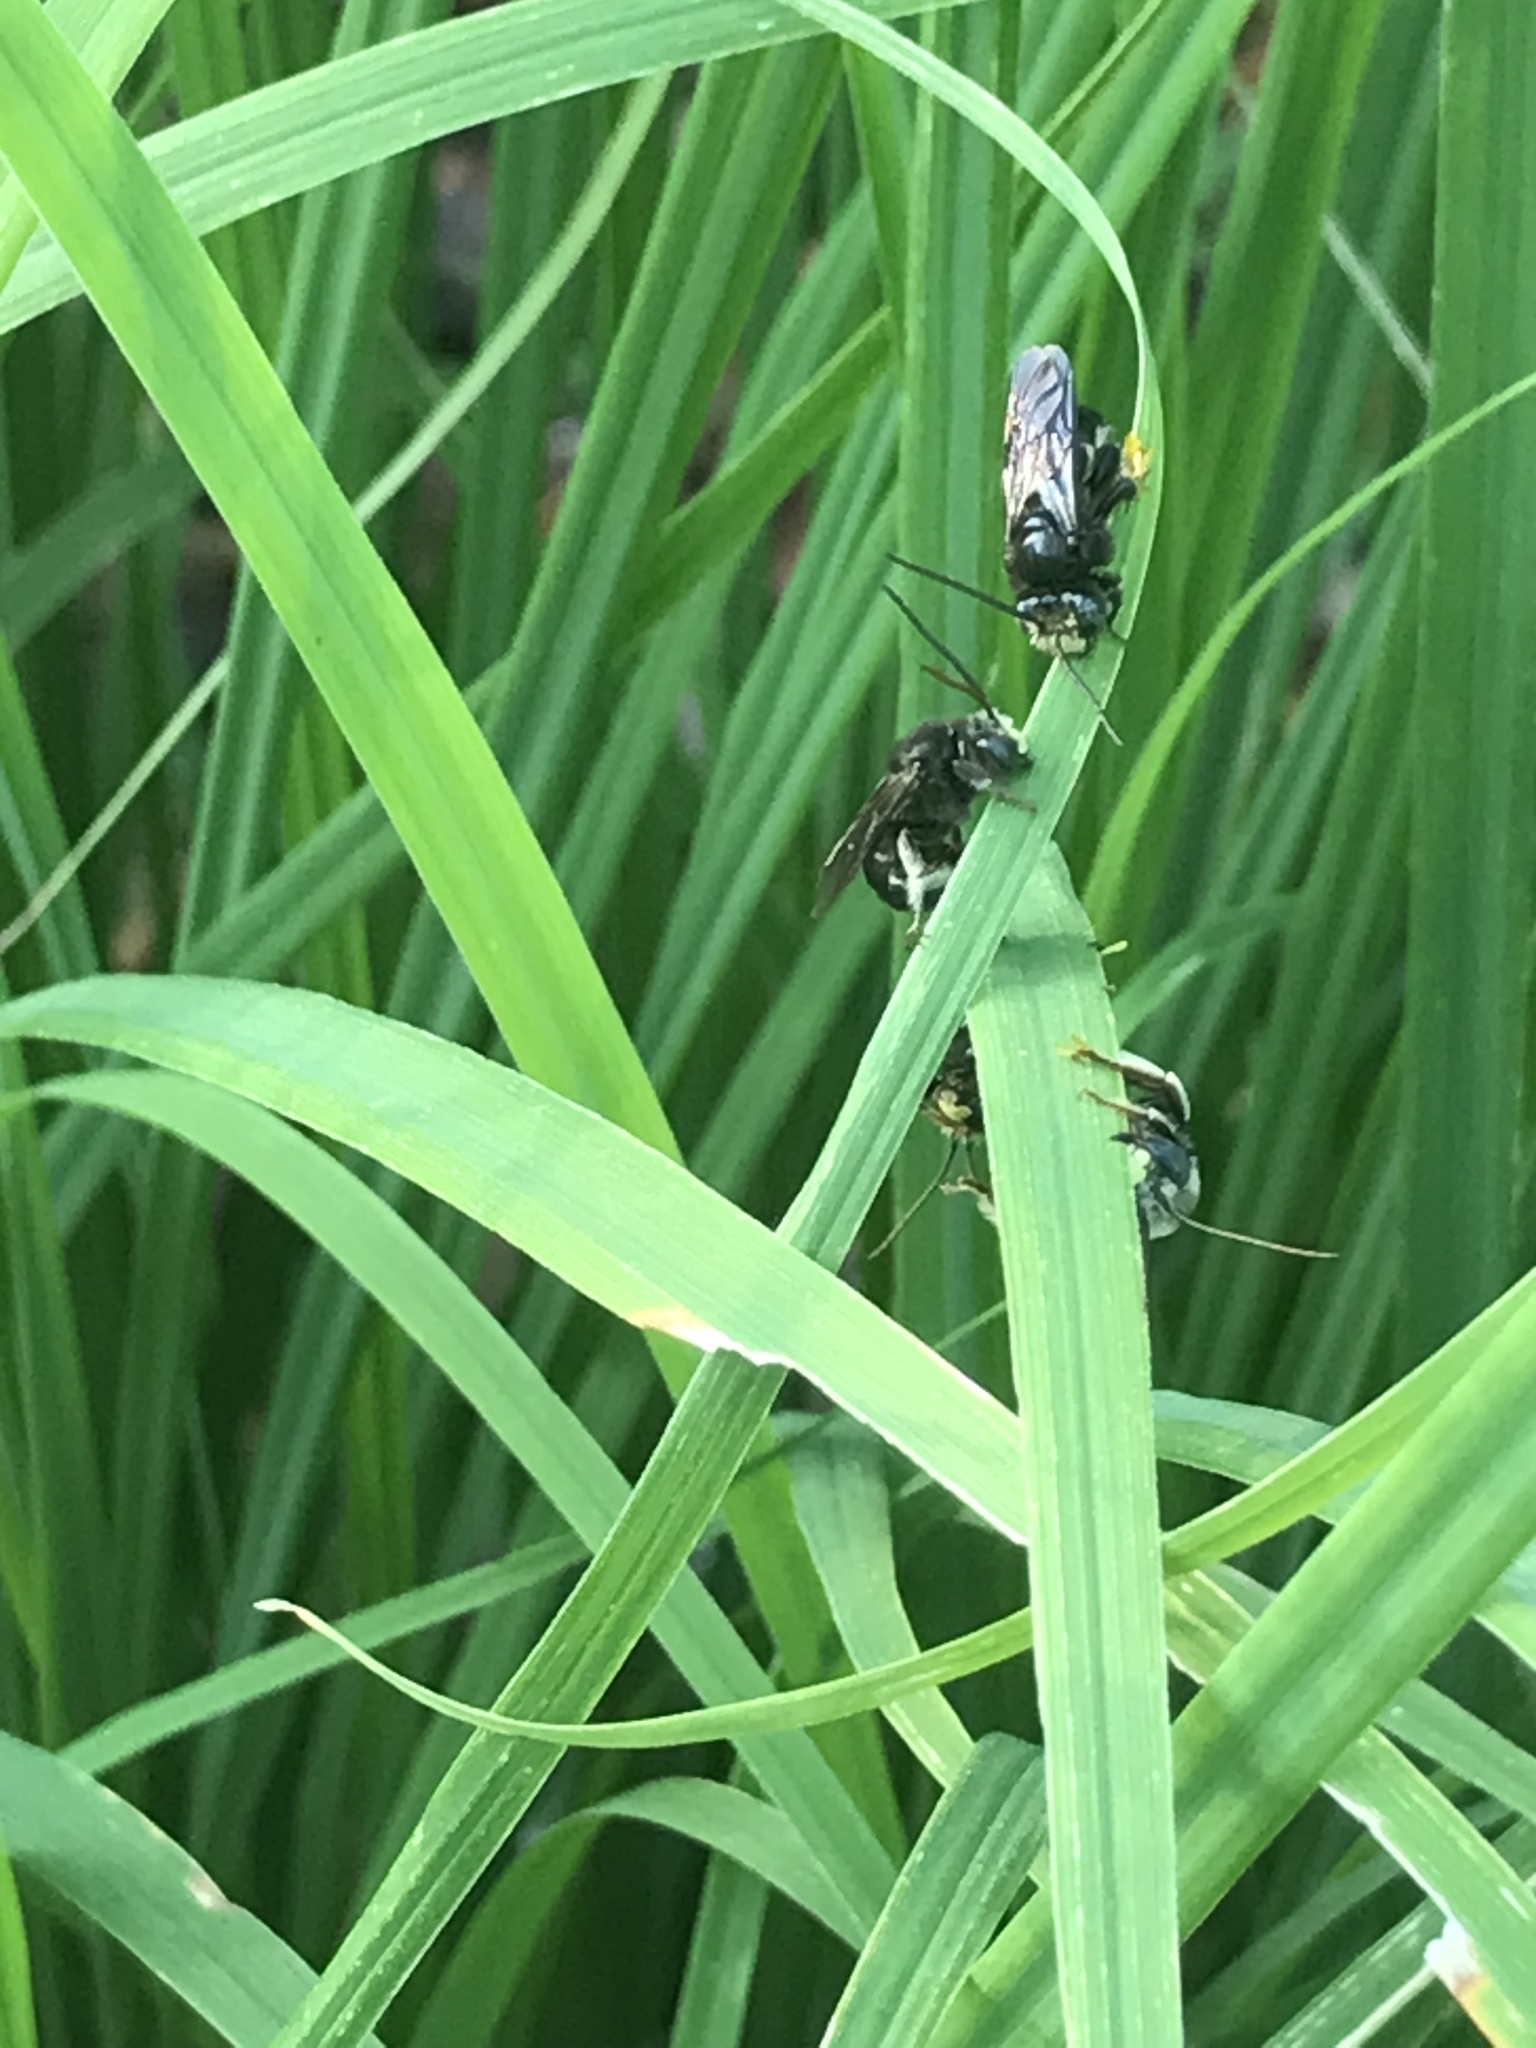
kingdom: Animalia
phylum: Arthropoda
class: Insecta
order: Hymenoptera
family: Apidae
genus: Melissodes
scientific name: Melissodes bimaculatus
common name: Two-spotted long-horned bee
